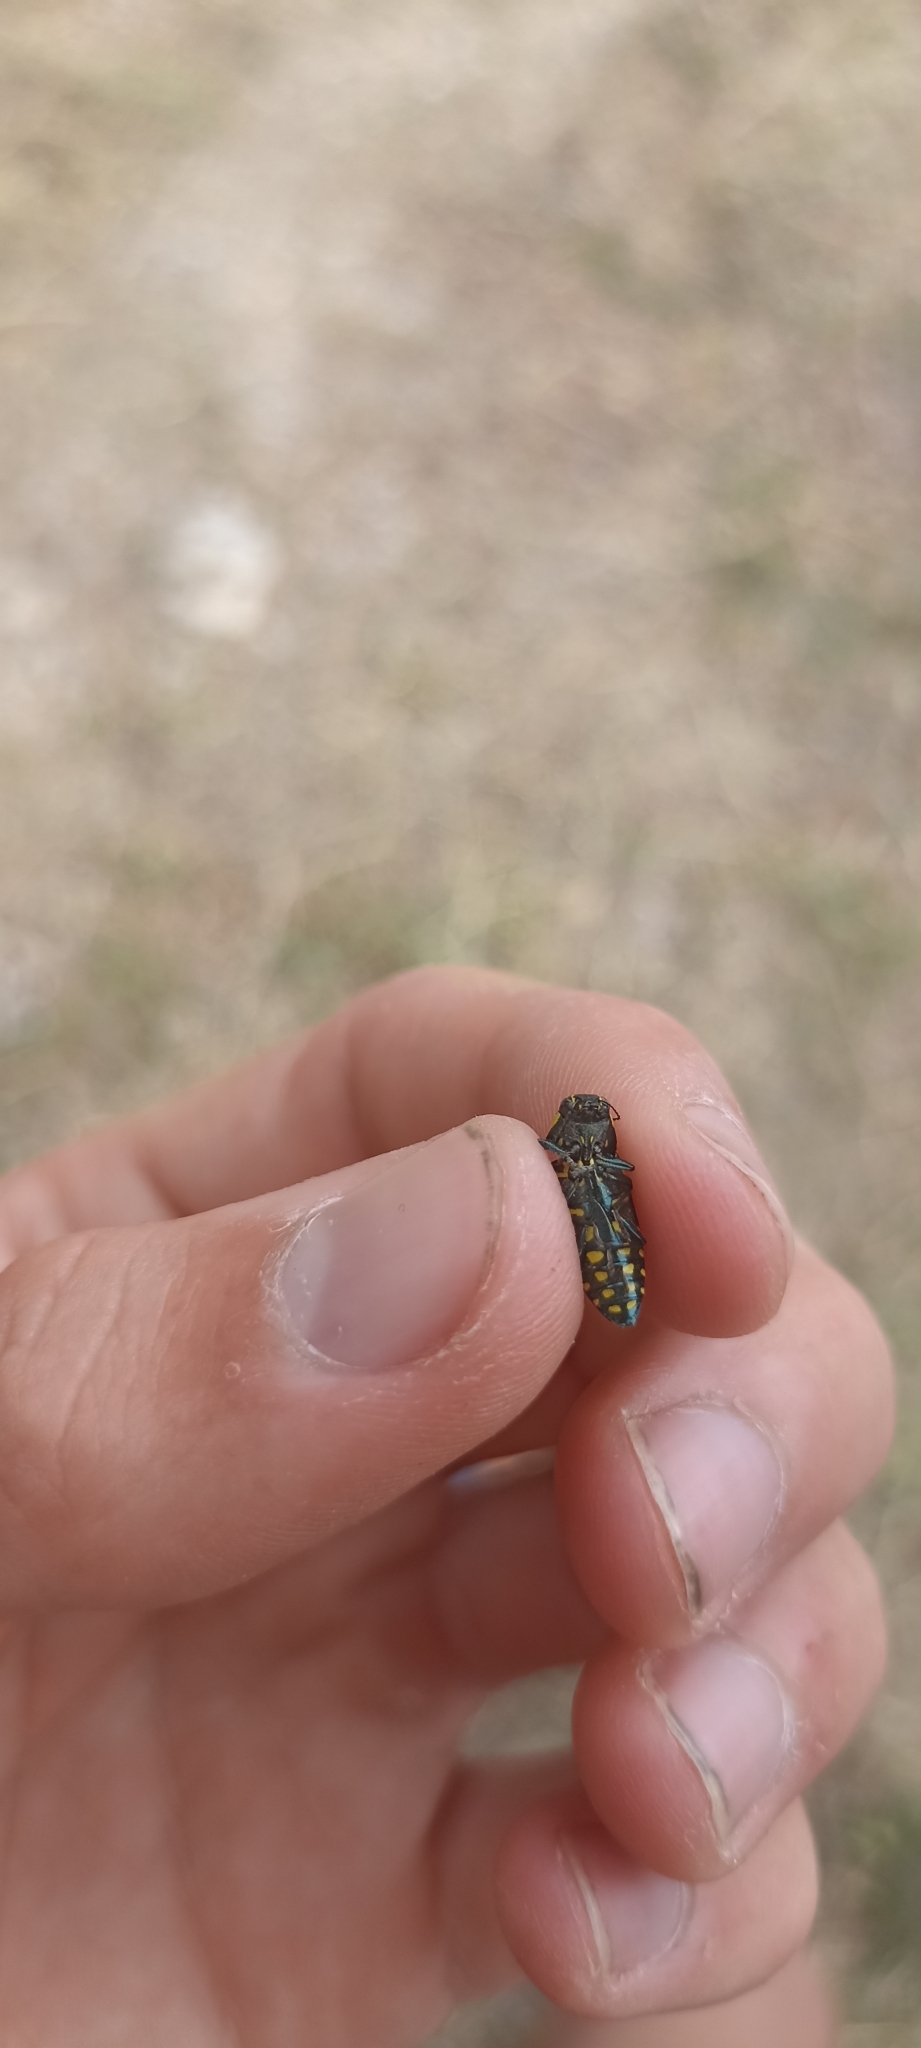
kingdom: Animalia
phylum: Arthropoda
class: Insecta
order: Coleoptera
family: Buprestidae
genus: Buprestis
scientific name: Buprestis octoguttata
